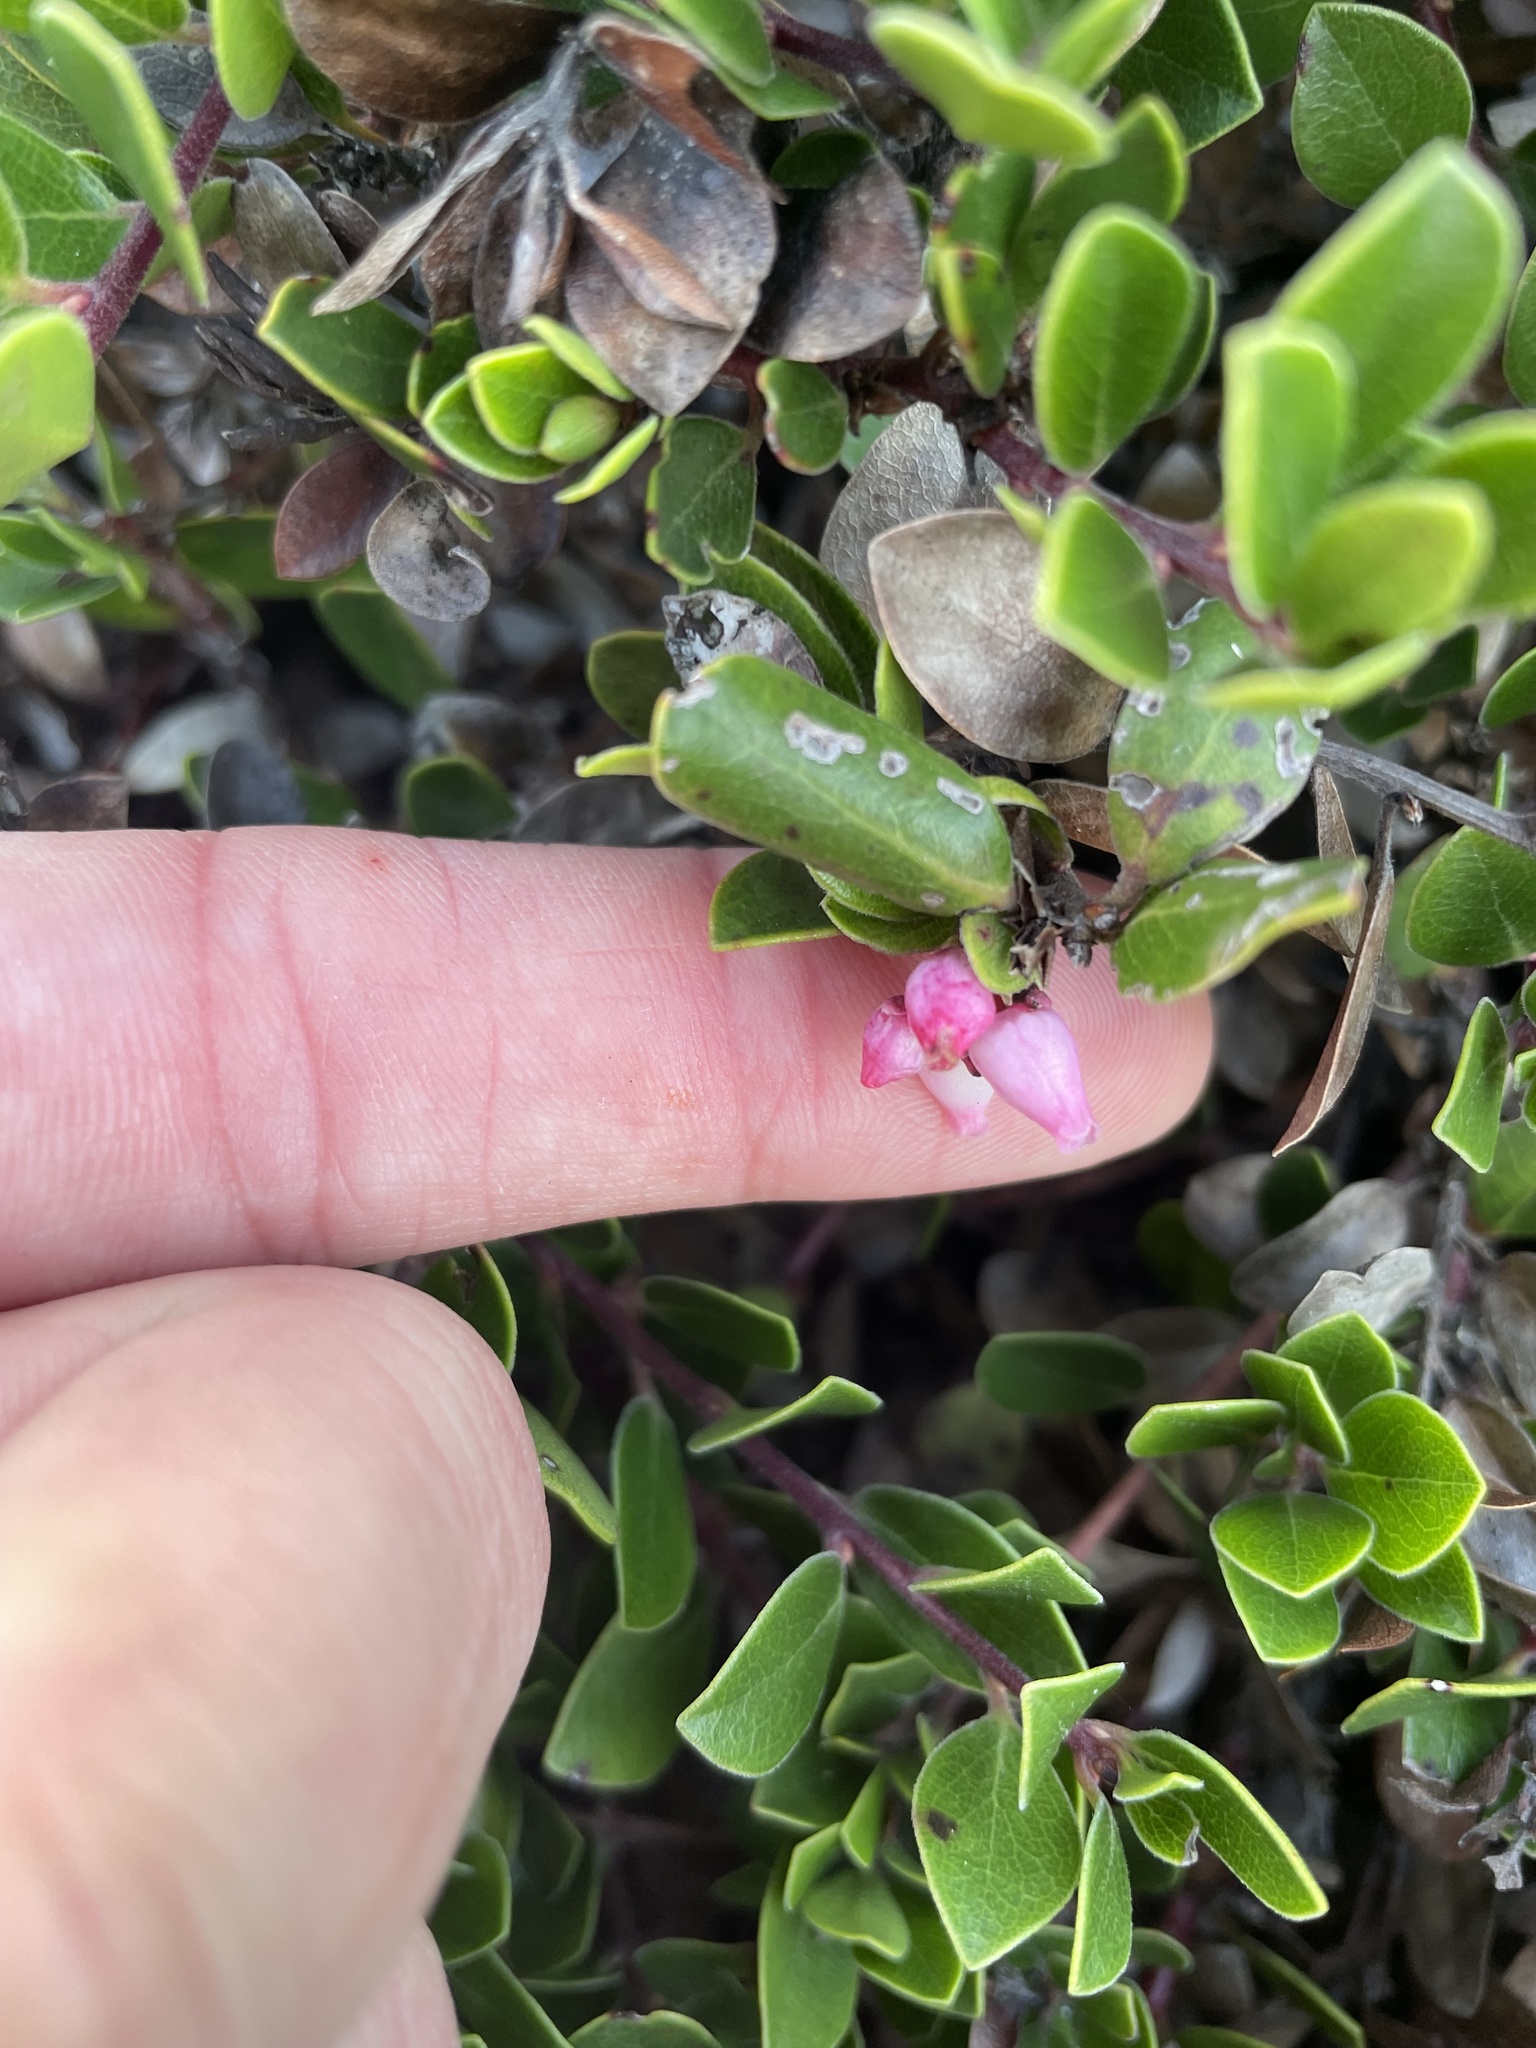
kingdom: Plantae
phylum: Tracheophyta
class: Magnoliopsida
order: Ericales
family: Ericaceae
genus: Arctostaphylos
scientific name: Arctostaphylos uva-ursi
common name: Bearberry
